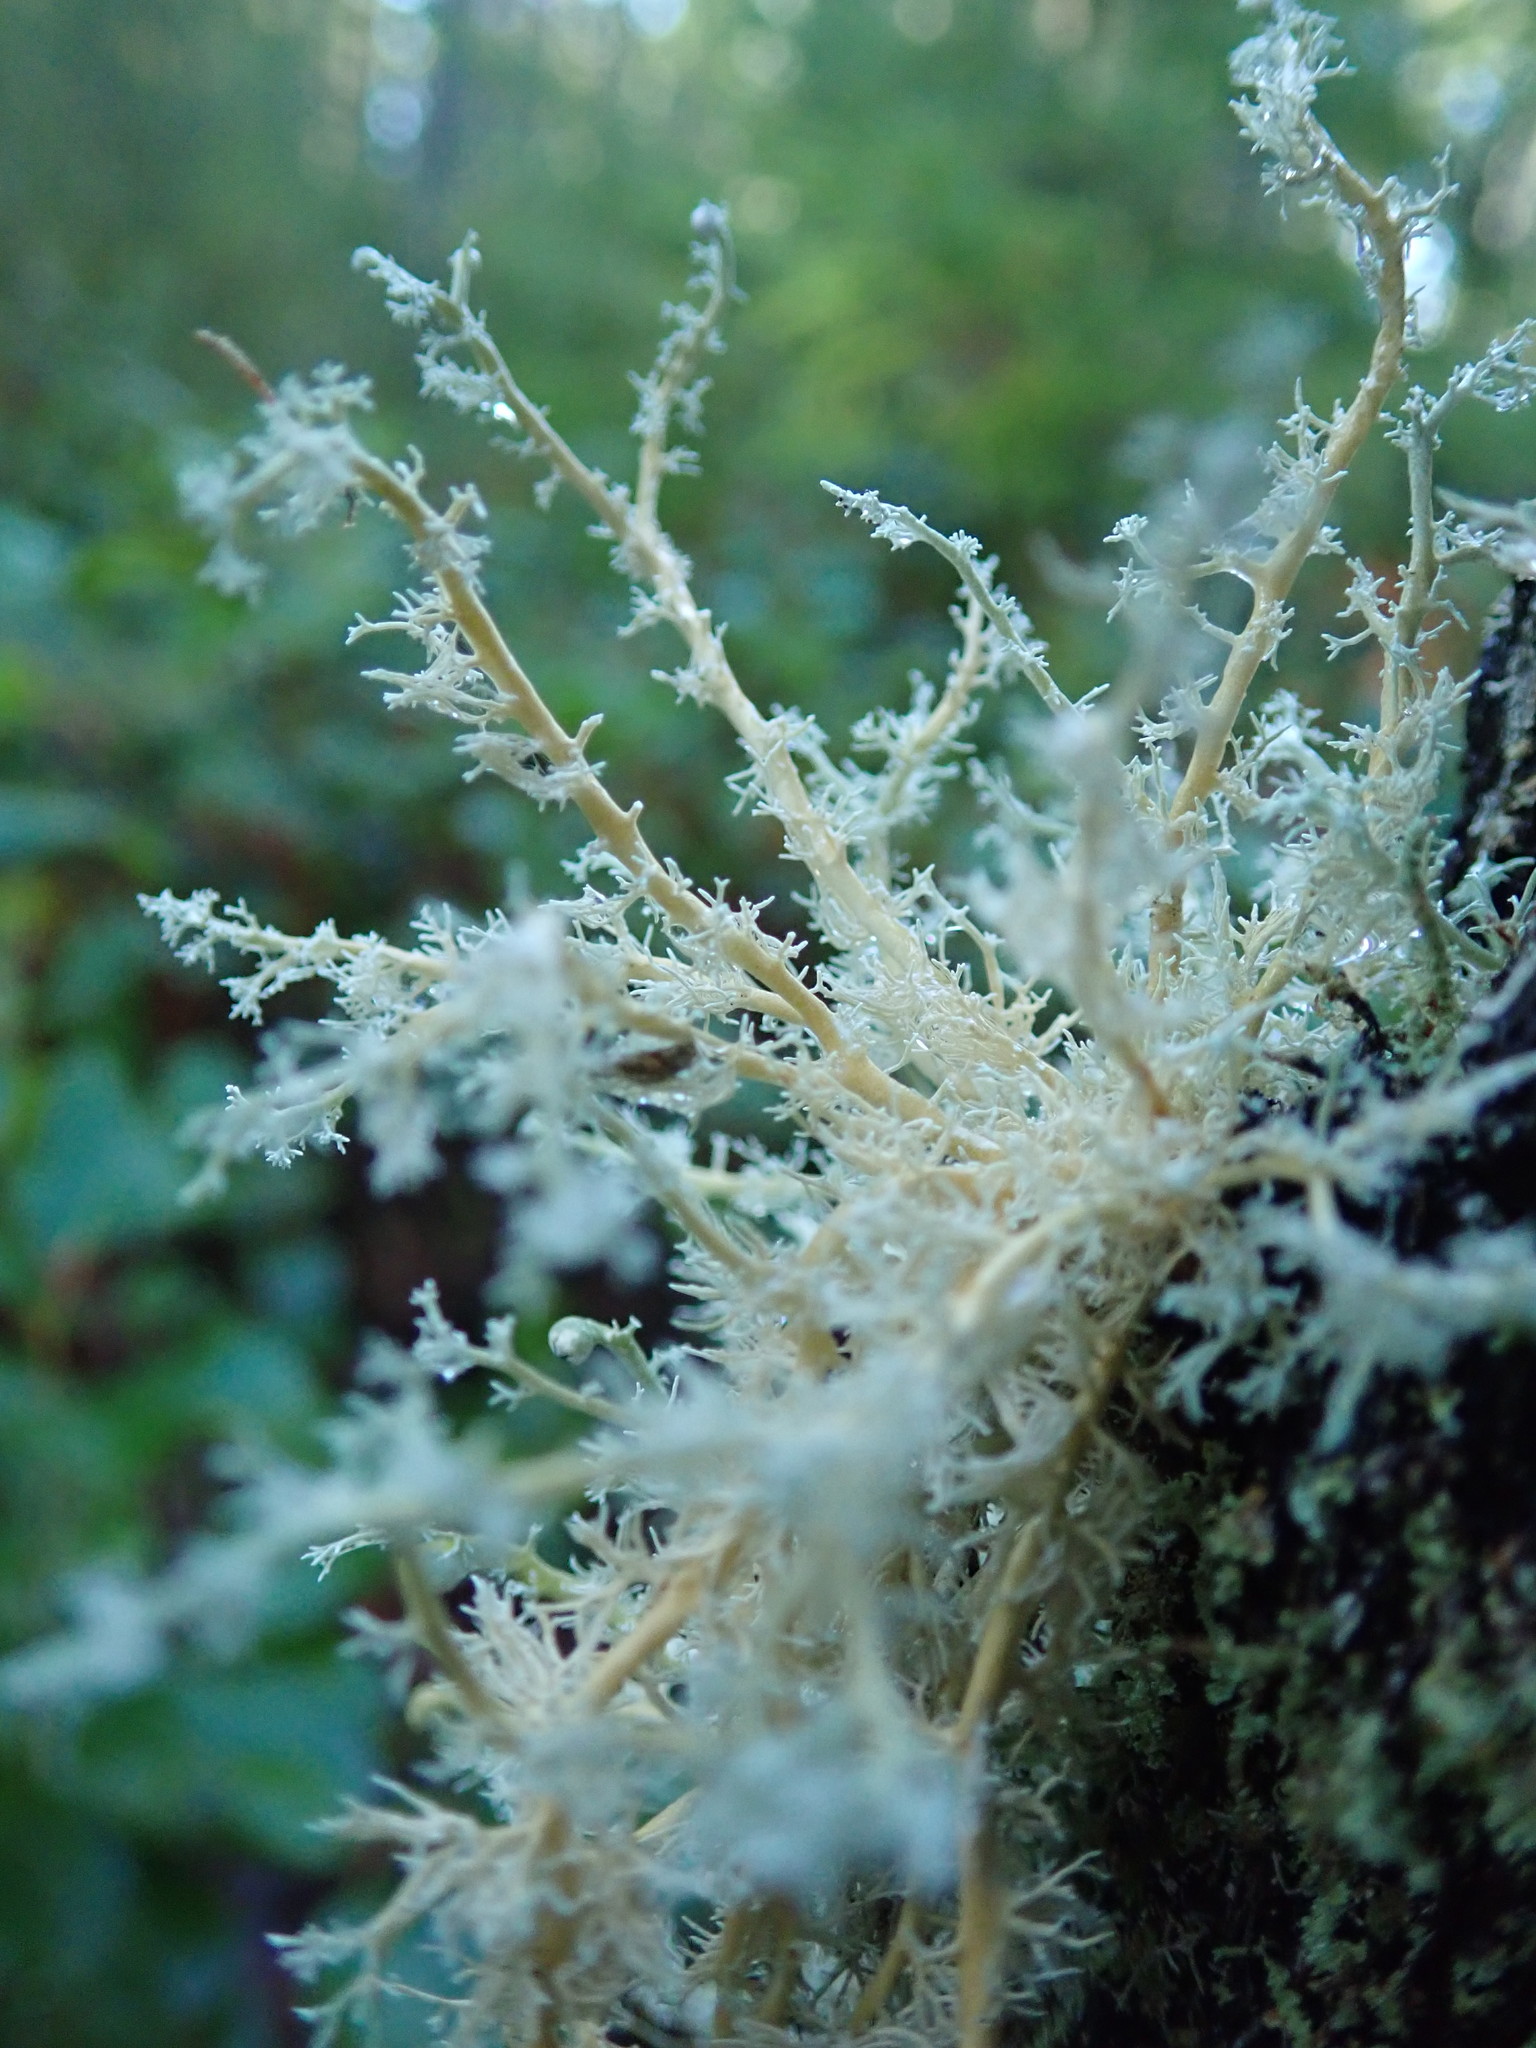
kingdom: Fungi
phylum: Ascomycota
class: Lecanoromycetes
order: Lecanorales
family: Sphaerophoraceae
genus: Sphaerophorus
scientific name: Sphaerophorus globosus
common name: Globe ball lichen
